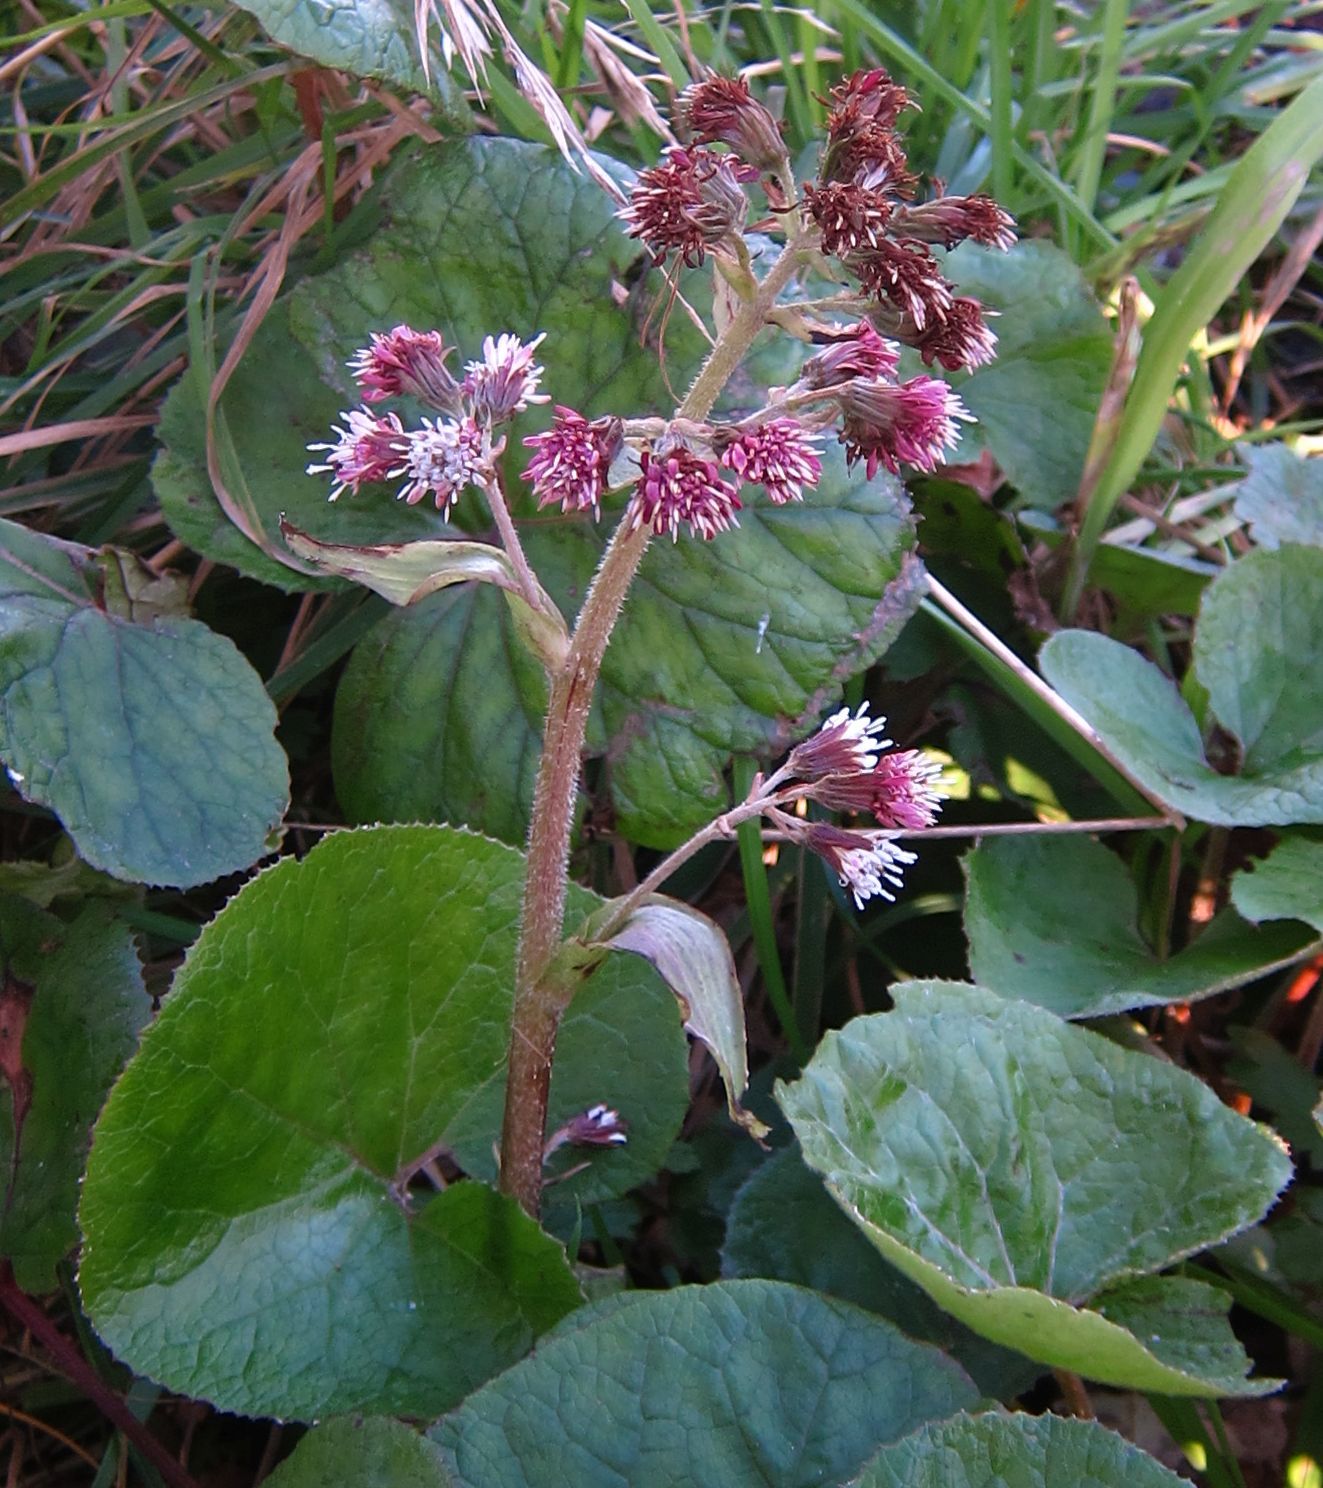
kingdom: Plantae
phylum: Tracheophyta
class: Magnoliopsida
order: Asterales
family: Asteraceae
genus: Petasites
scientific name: Petasites pyrenaicus
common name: Winter heliotrope
